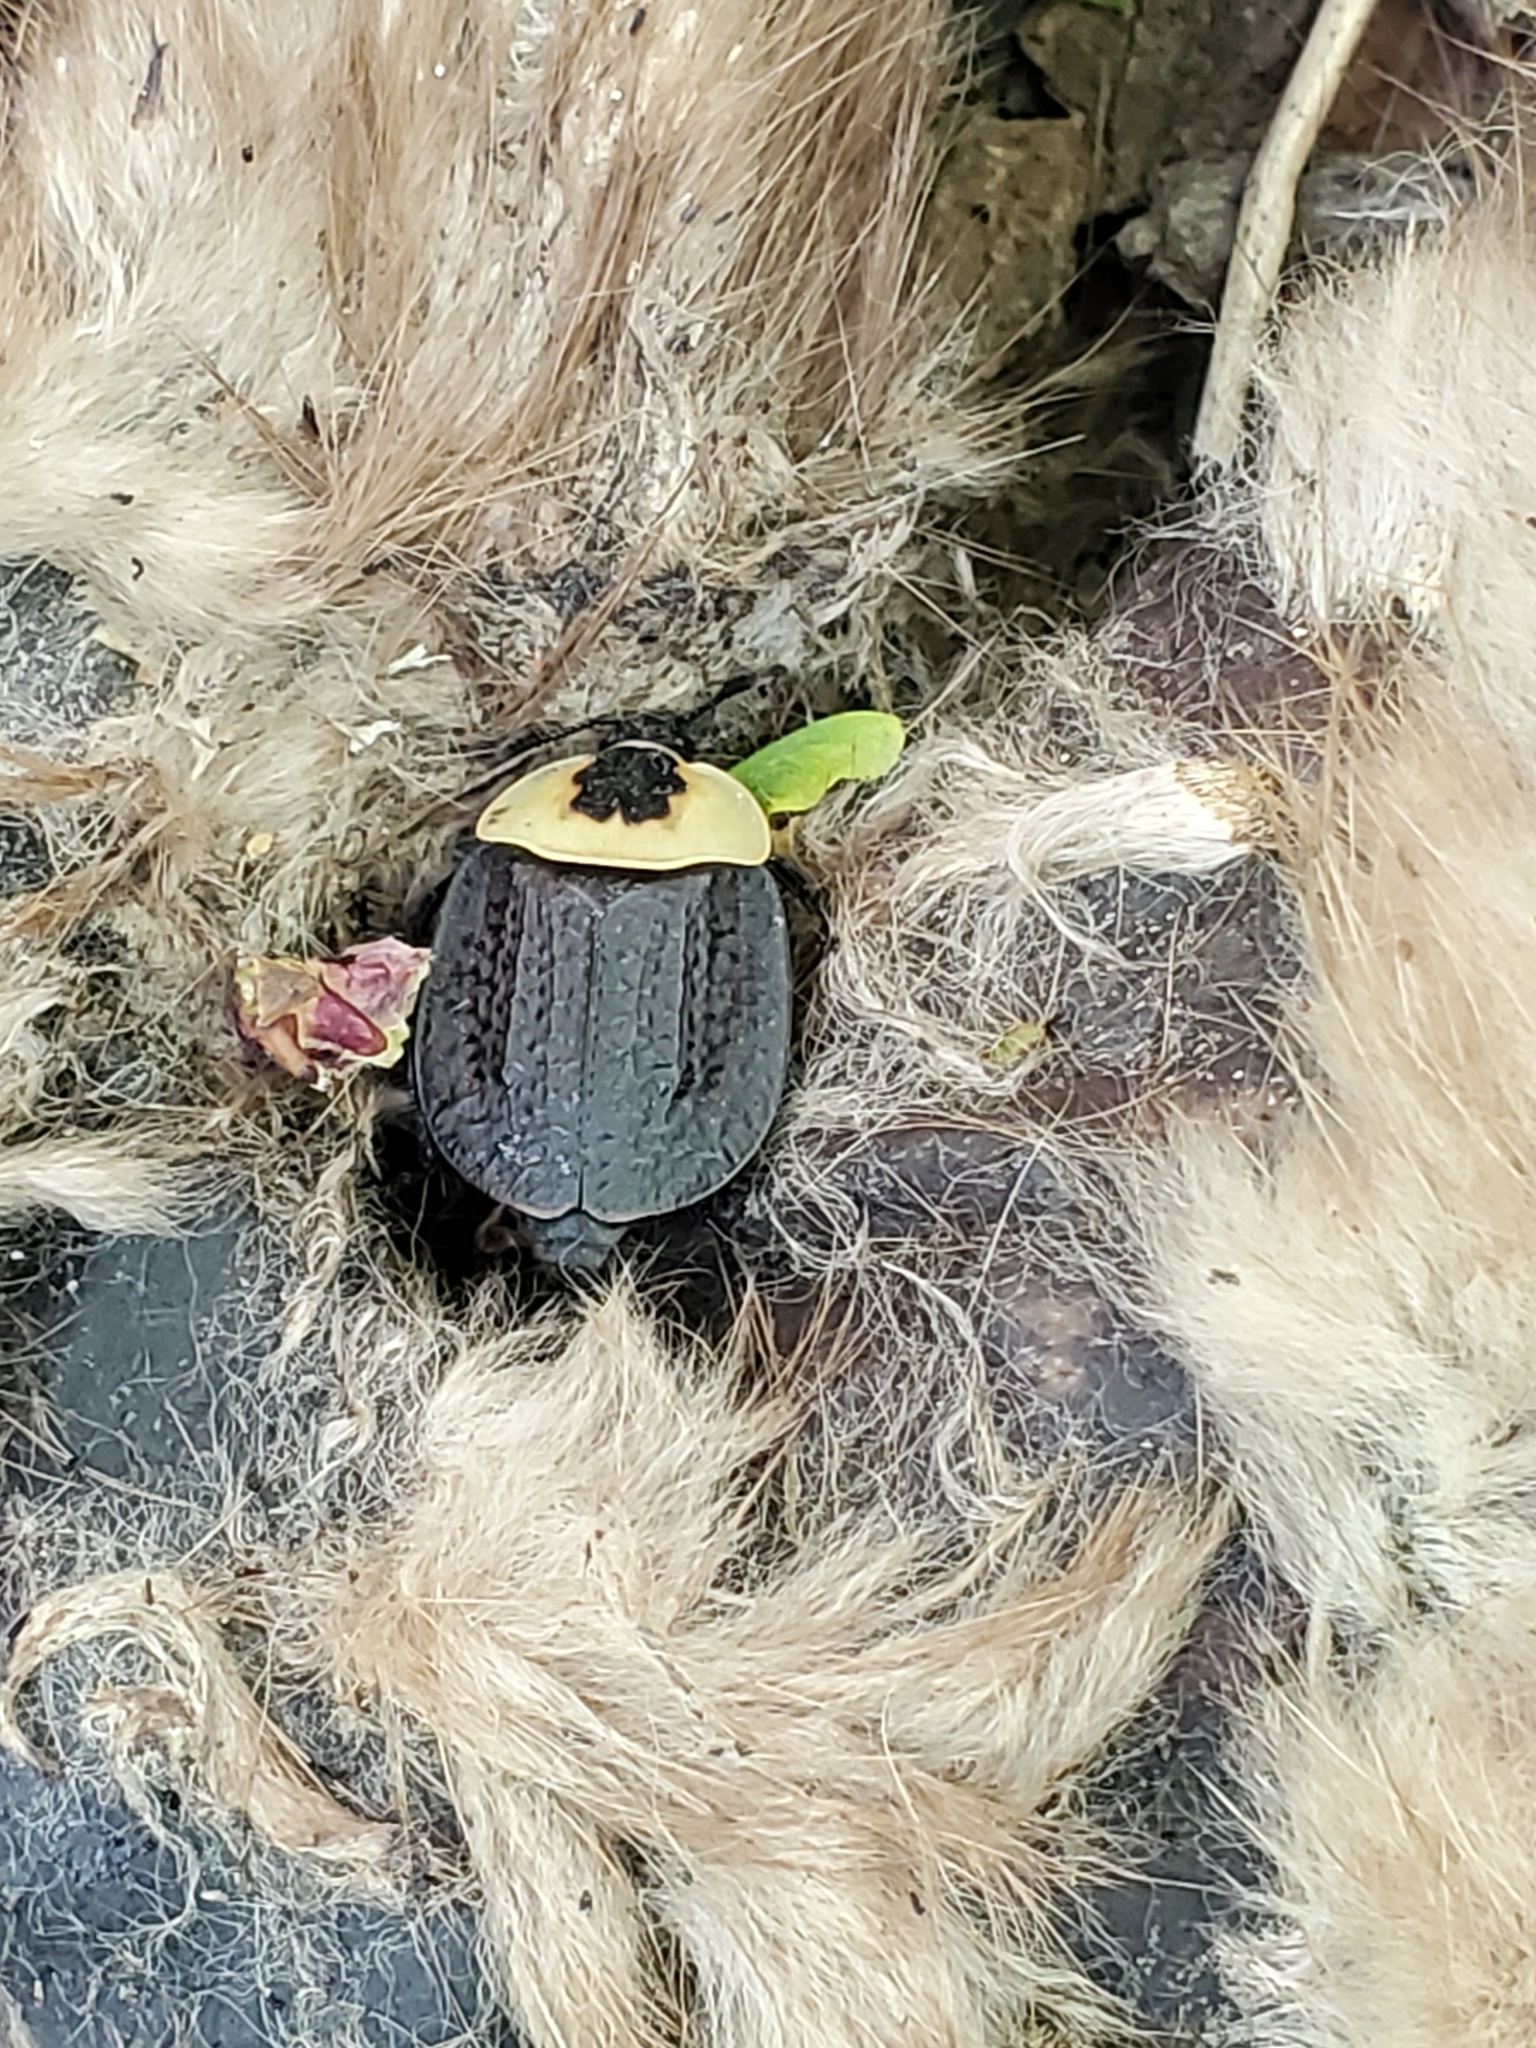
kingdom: Animalia
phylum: Arthropoda
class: Insecta
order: Coleoptera
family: Staphylinidae
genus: Necrophila
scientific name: Necrophila americana
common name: American carrion beetle
